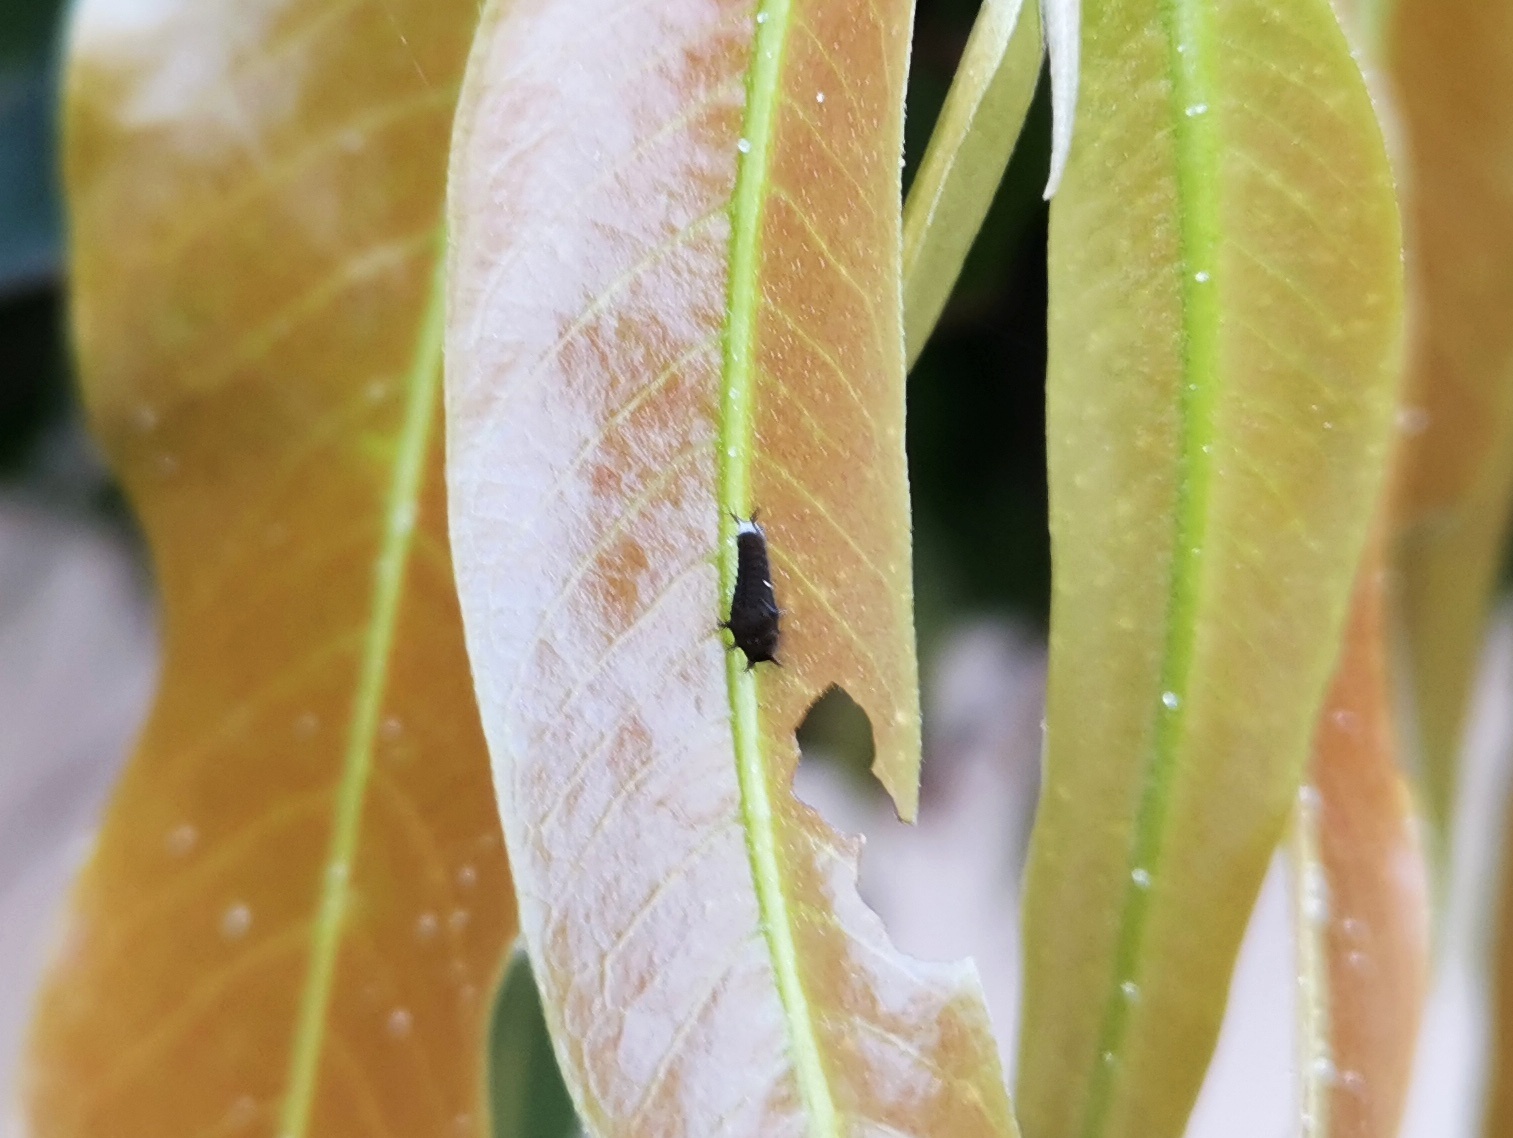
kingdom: Animalia
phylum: Arthropoda
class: Insecta
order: Lepidoptera
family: Papilionidae
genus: Graphium
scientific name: Graphium doson
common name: Common jay
